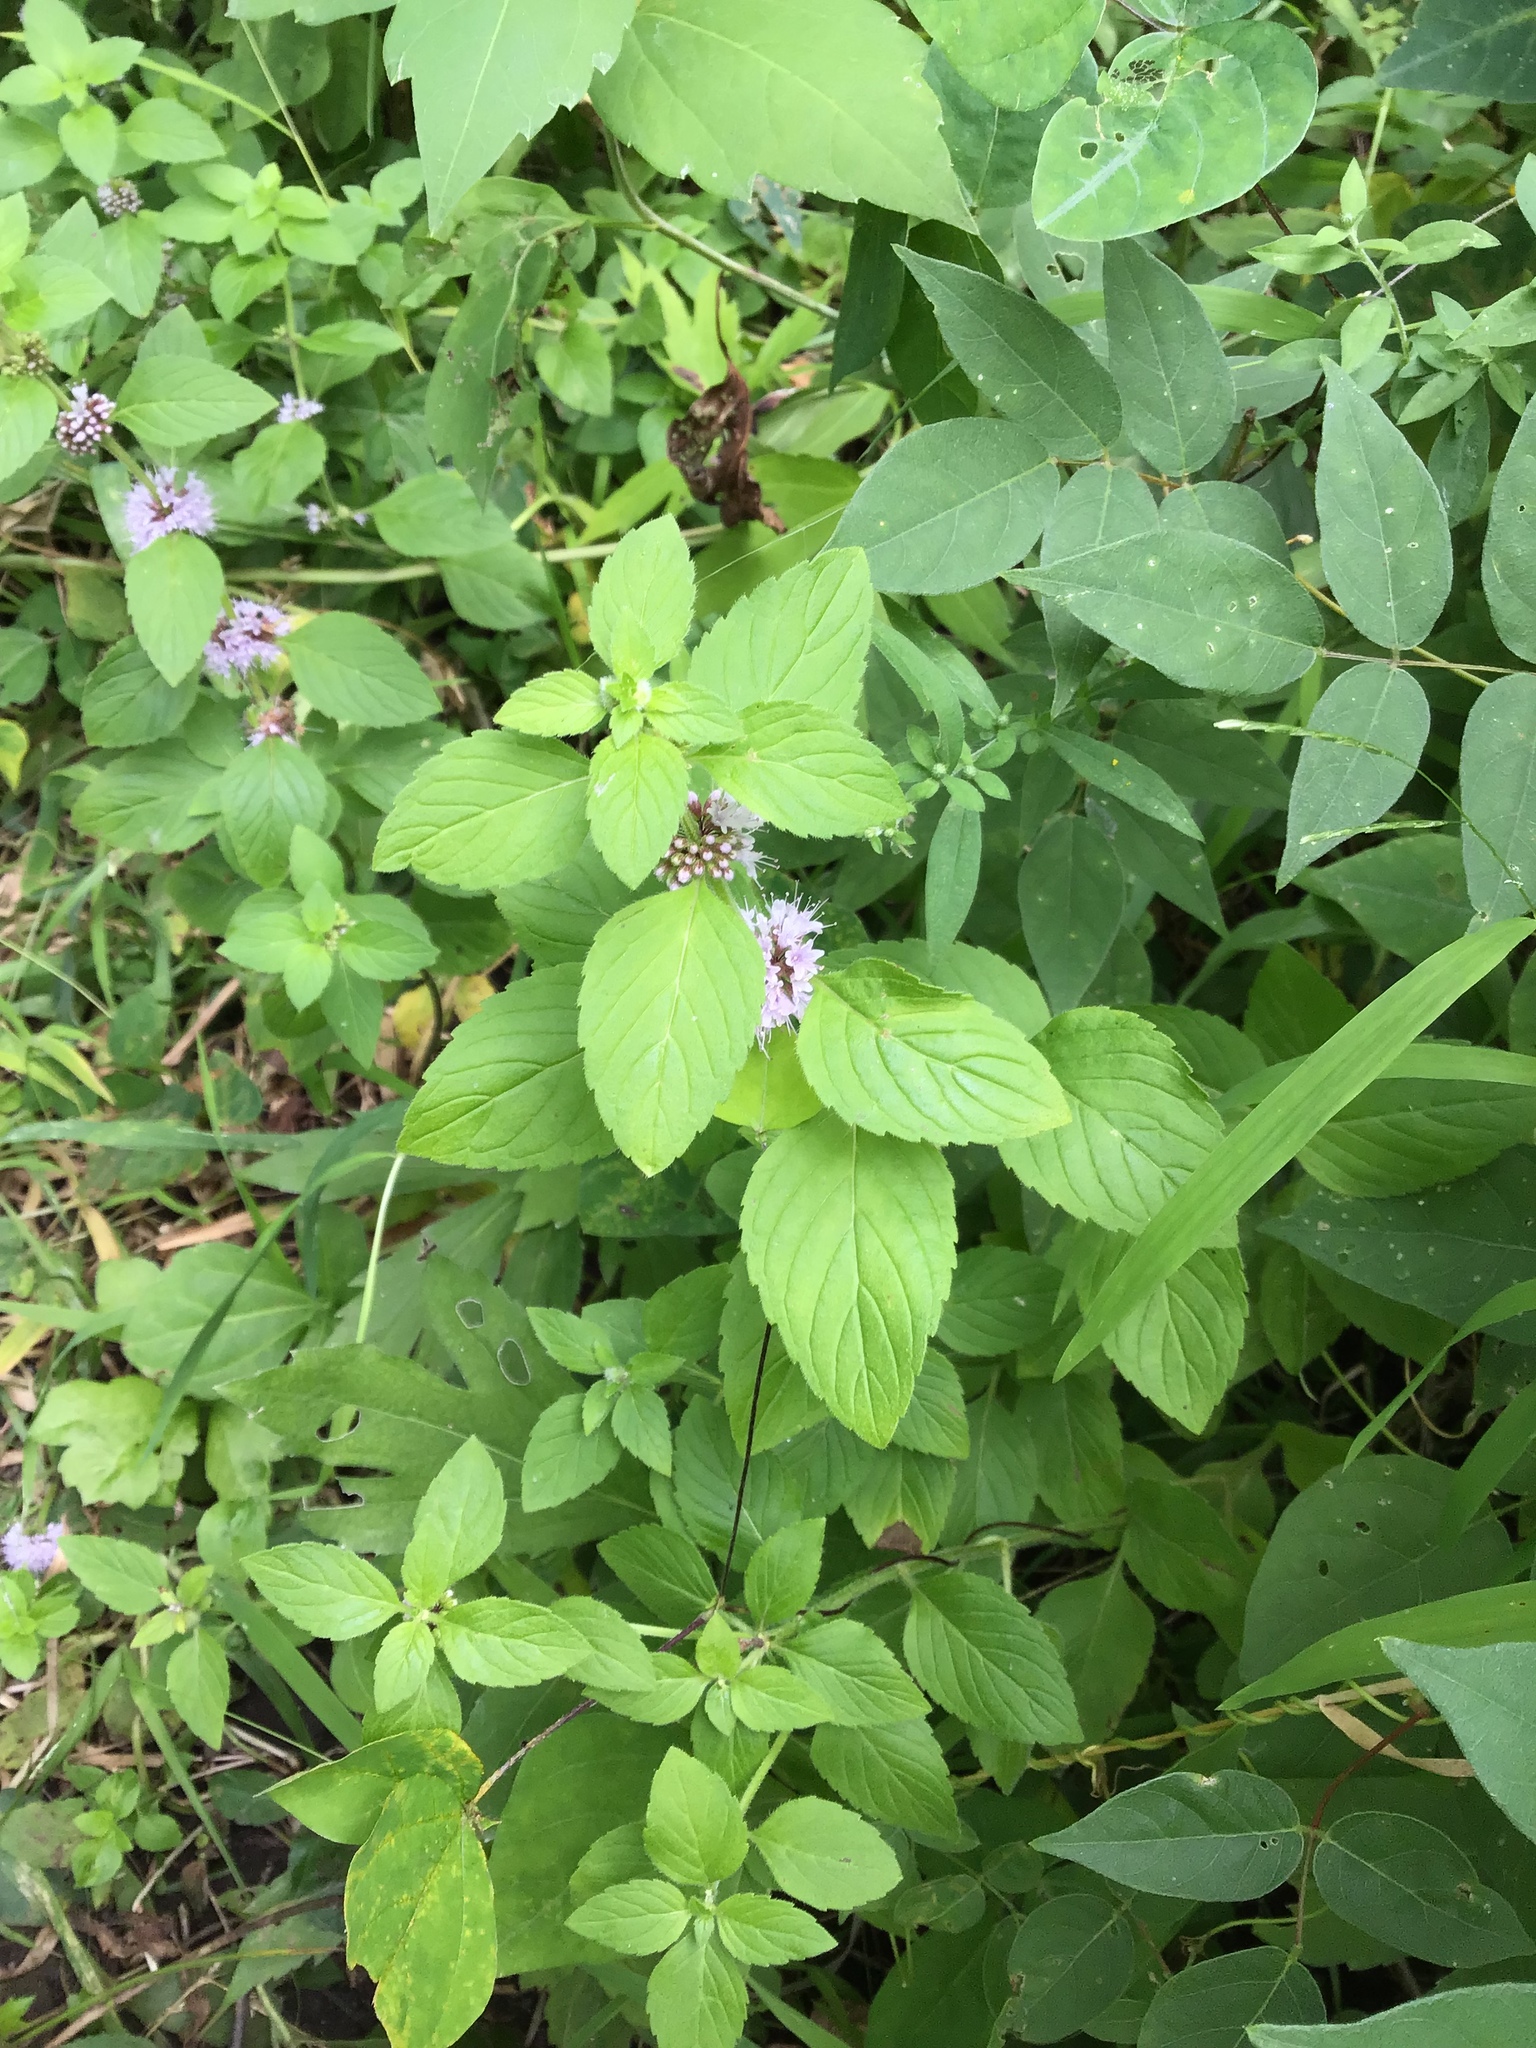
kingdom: Plantae
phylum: Tracheophyta
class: Magnoliopsida
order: Lamiales
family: Lamiaceae
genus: Mentha
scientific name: Mentha arvensis
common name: Corn mint
